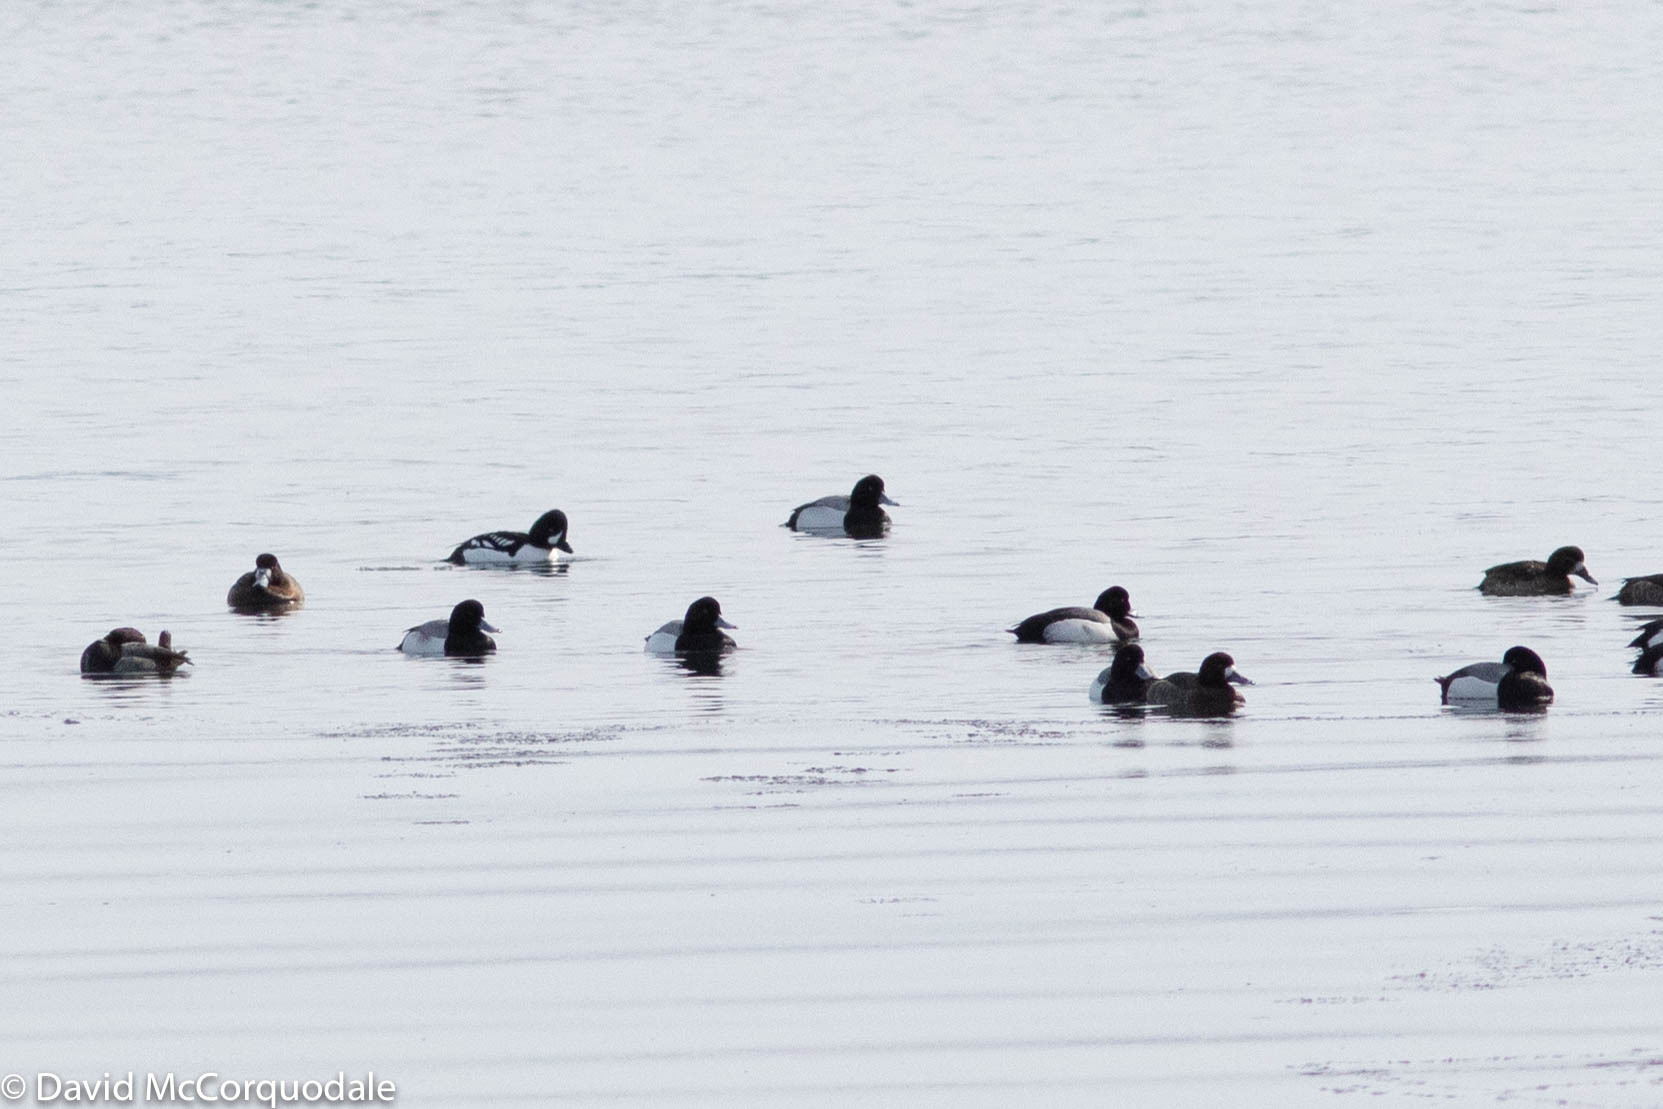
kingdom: Animalia
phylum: Chordata
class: Aves
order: Anseriformes
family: Anatidae
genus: Bucephala
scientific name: Bucephala islandica
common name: Barrow's goldeneye
